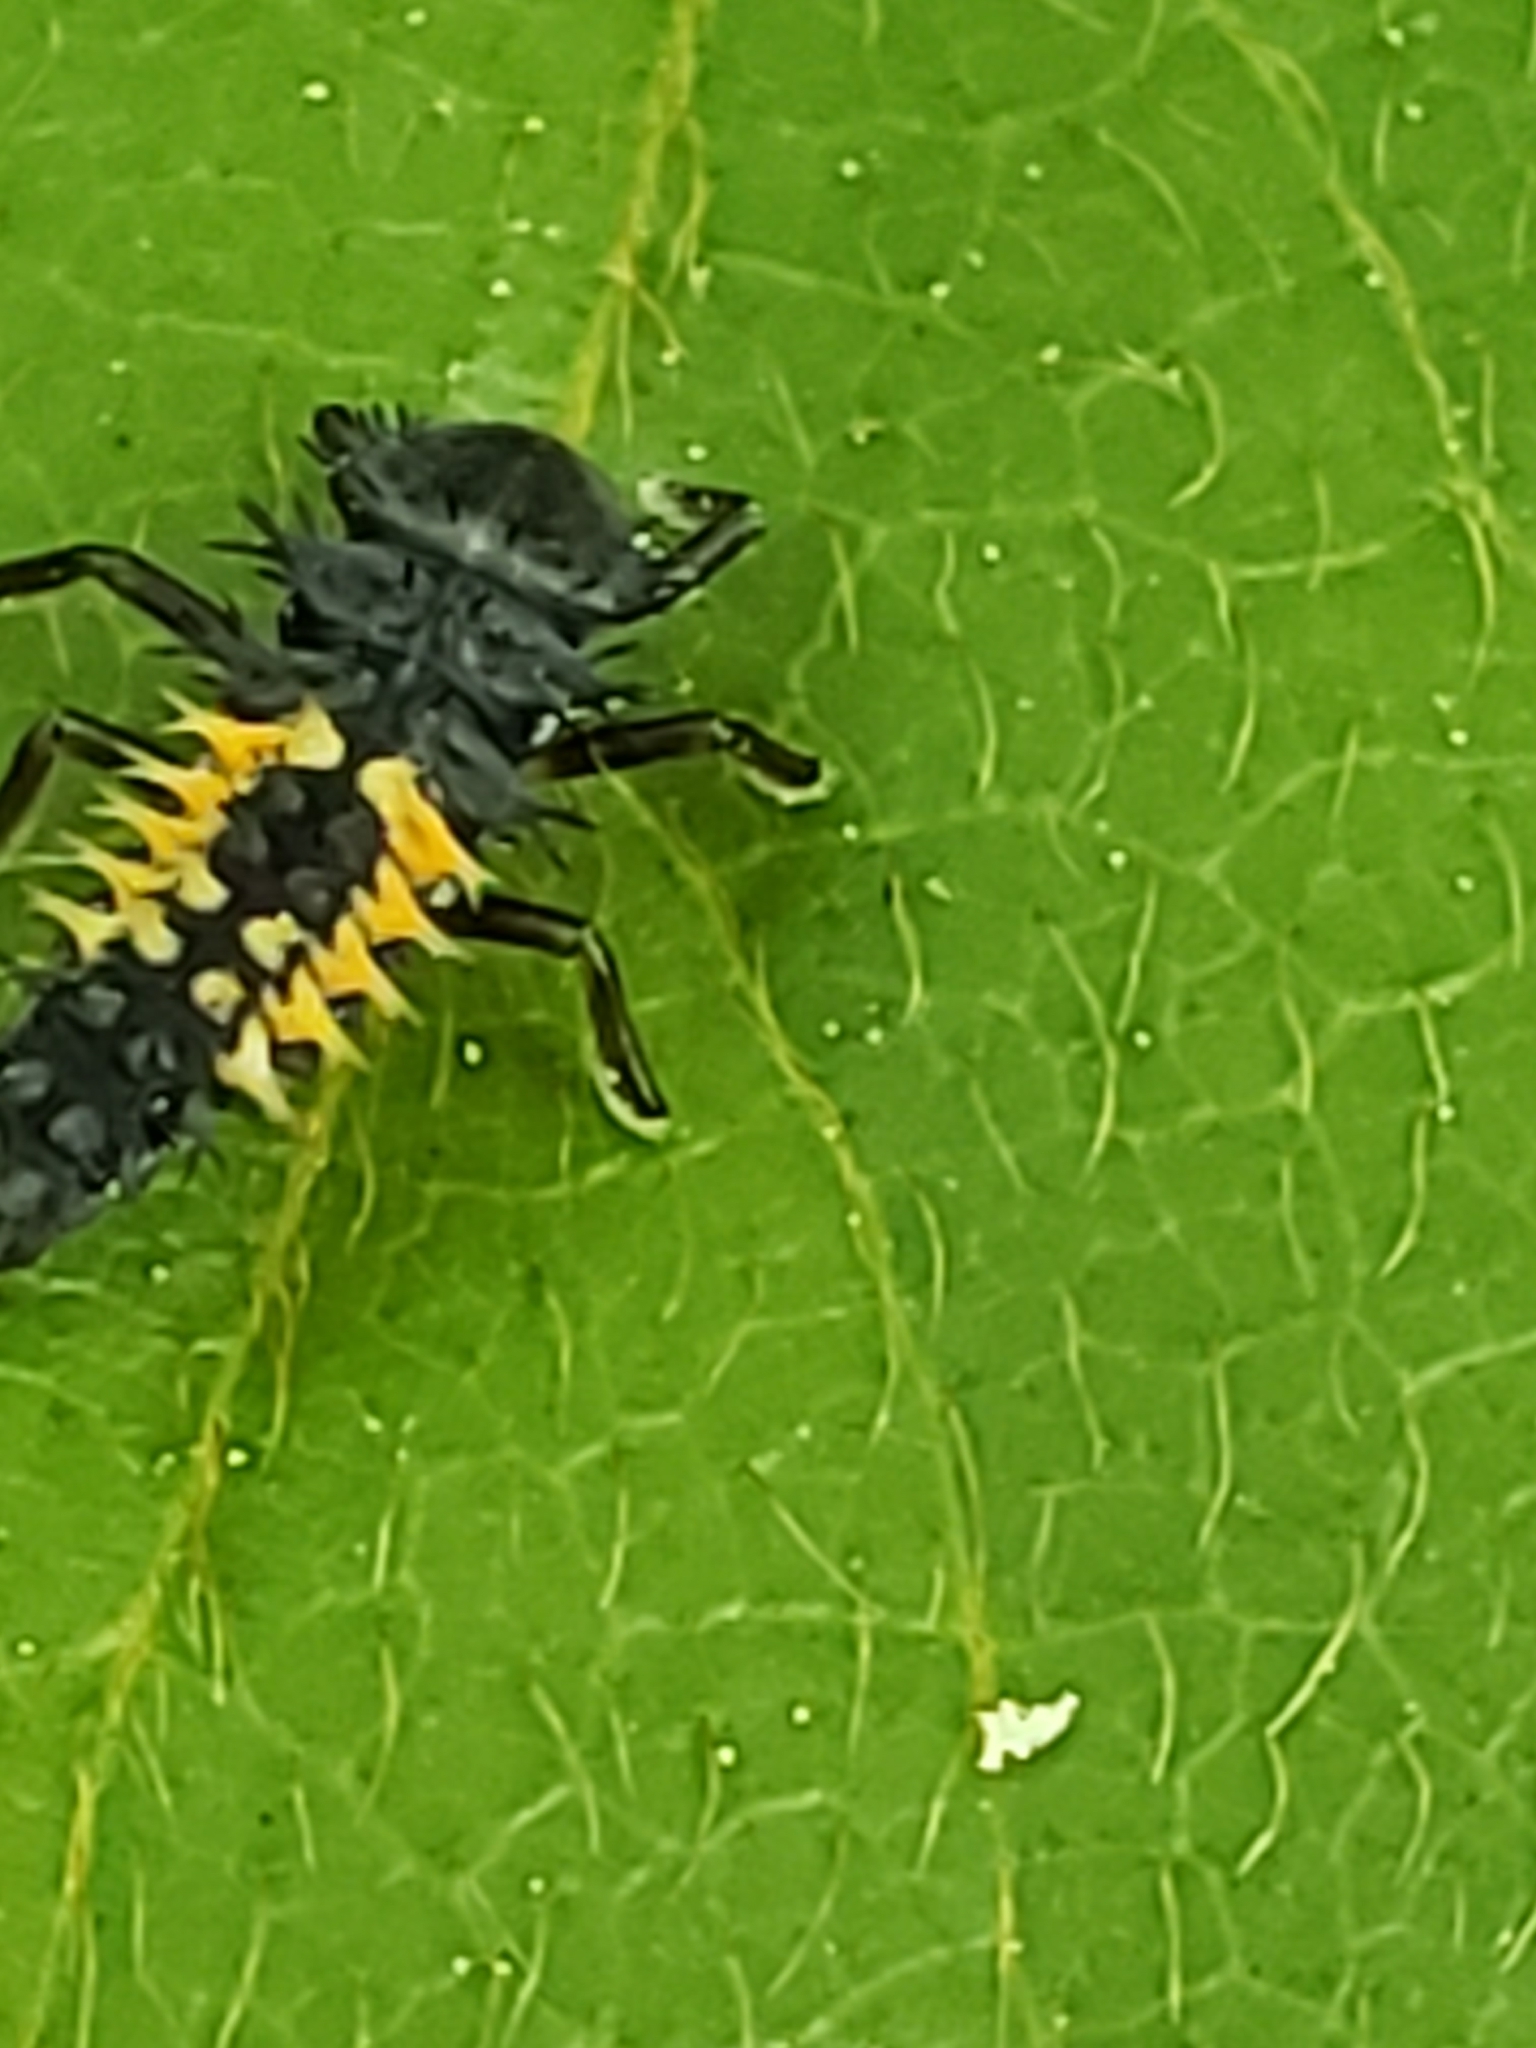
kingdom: Animalia
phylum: Arthropoda
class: Insecta
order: Coleoptera
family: Coccinellidae
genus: Harmonia
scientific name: Harmonia axyridis
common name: Harlequin ladybird
